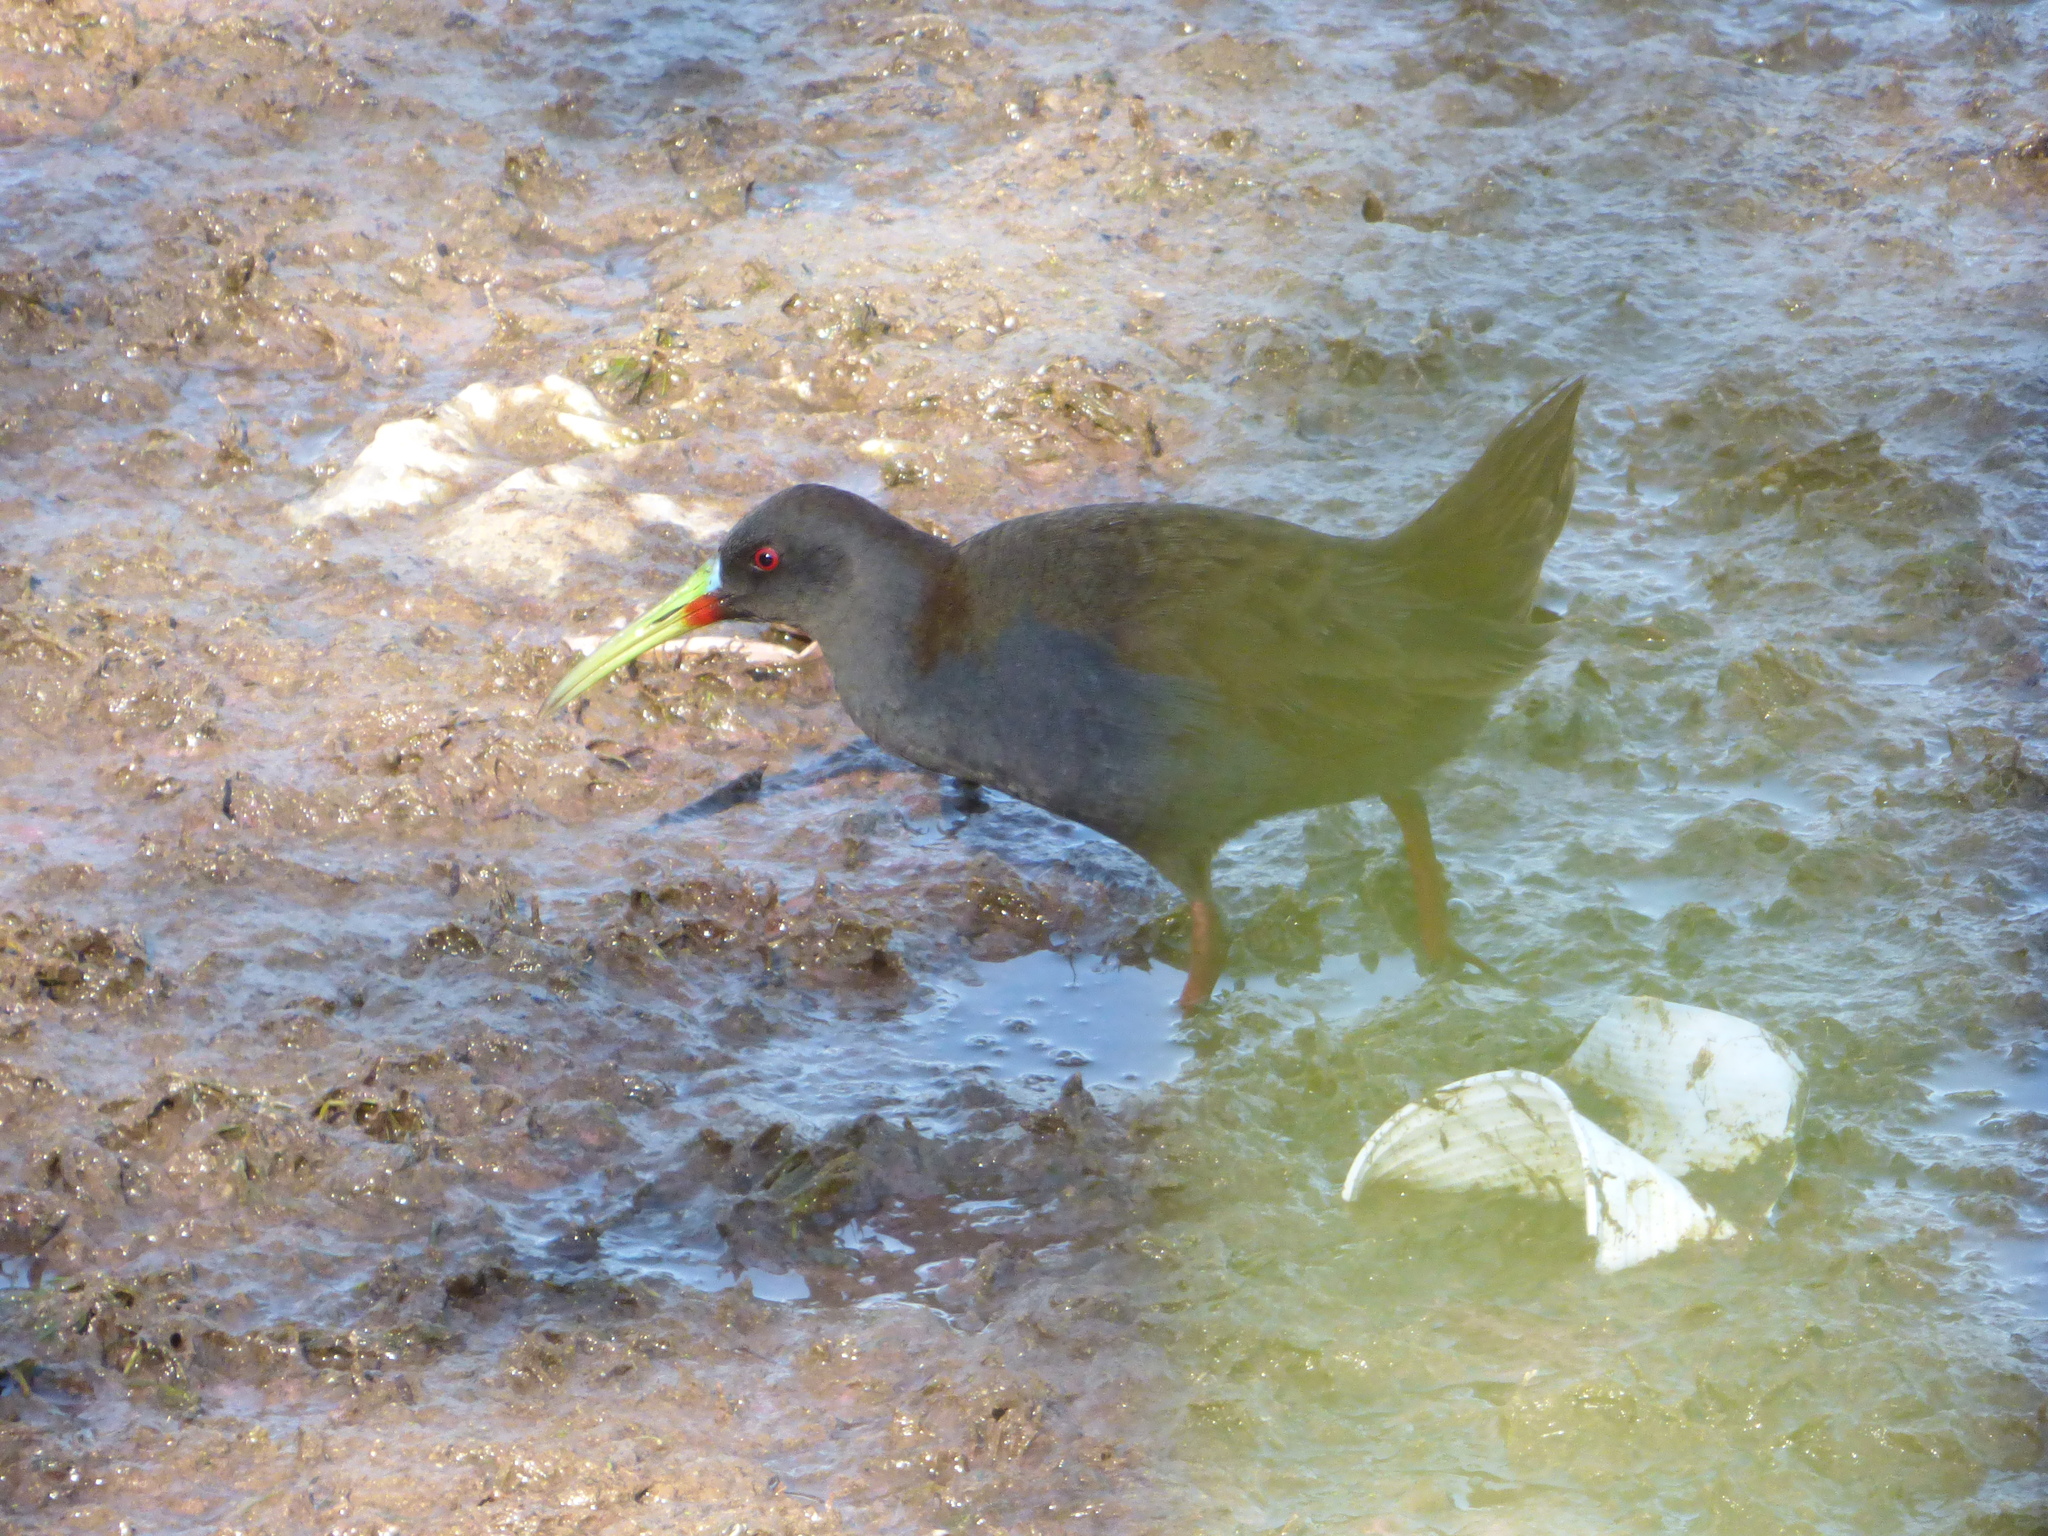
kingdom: Animalia
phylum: Chordata
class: Aves
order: Gruiformes
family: Rallidae
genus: Pardirallus
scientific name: Pardirallus sanguinolentus
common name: Plumbeous rail
